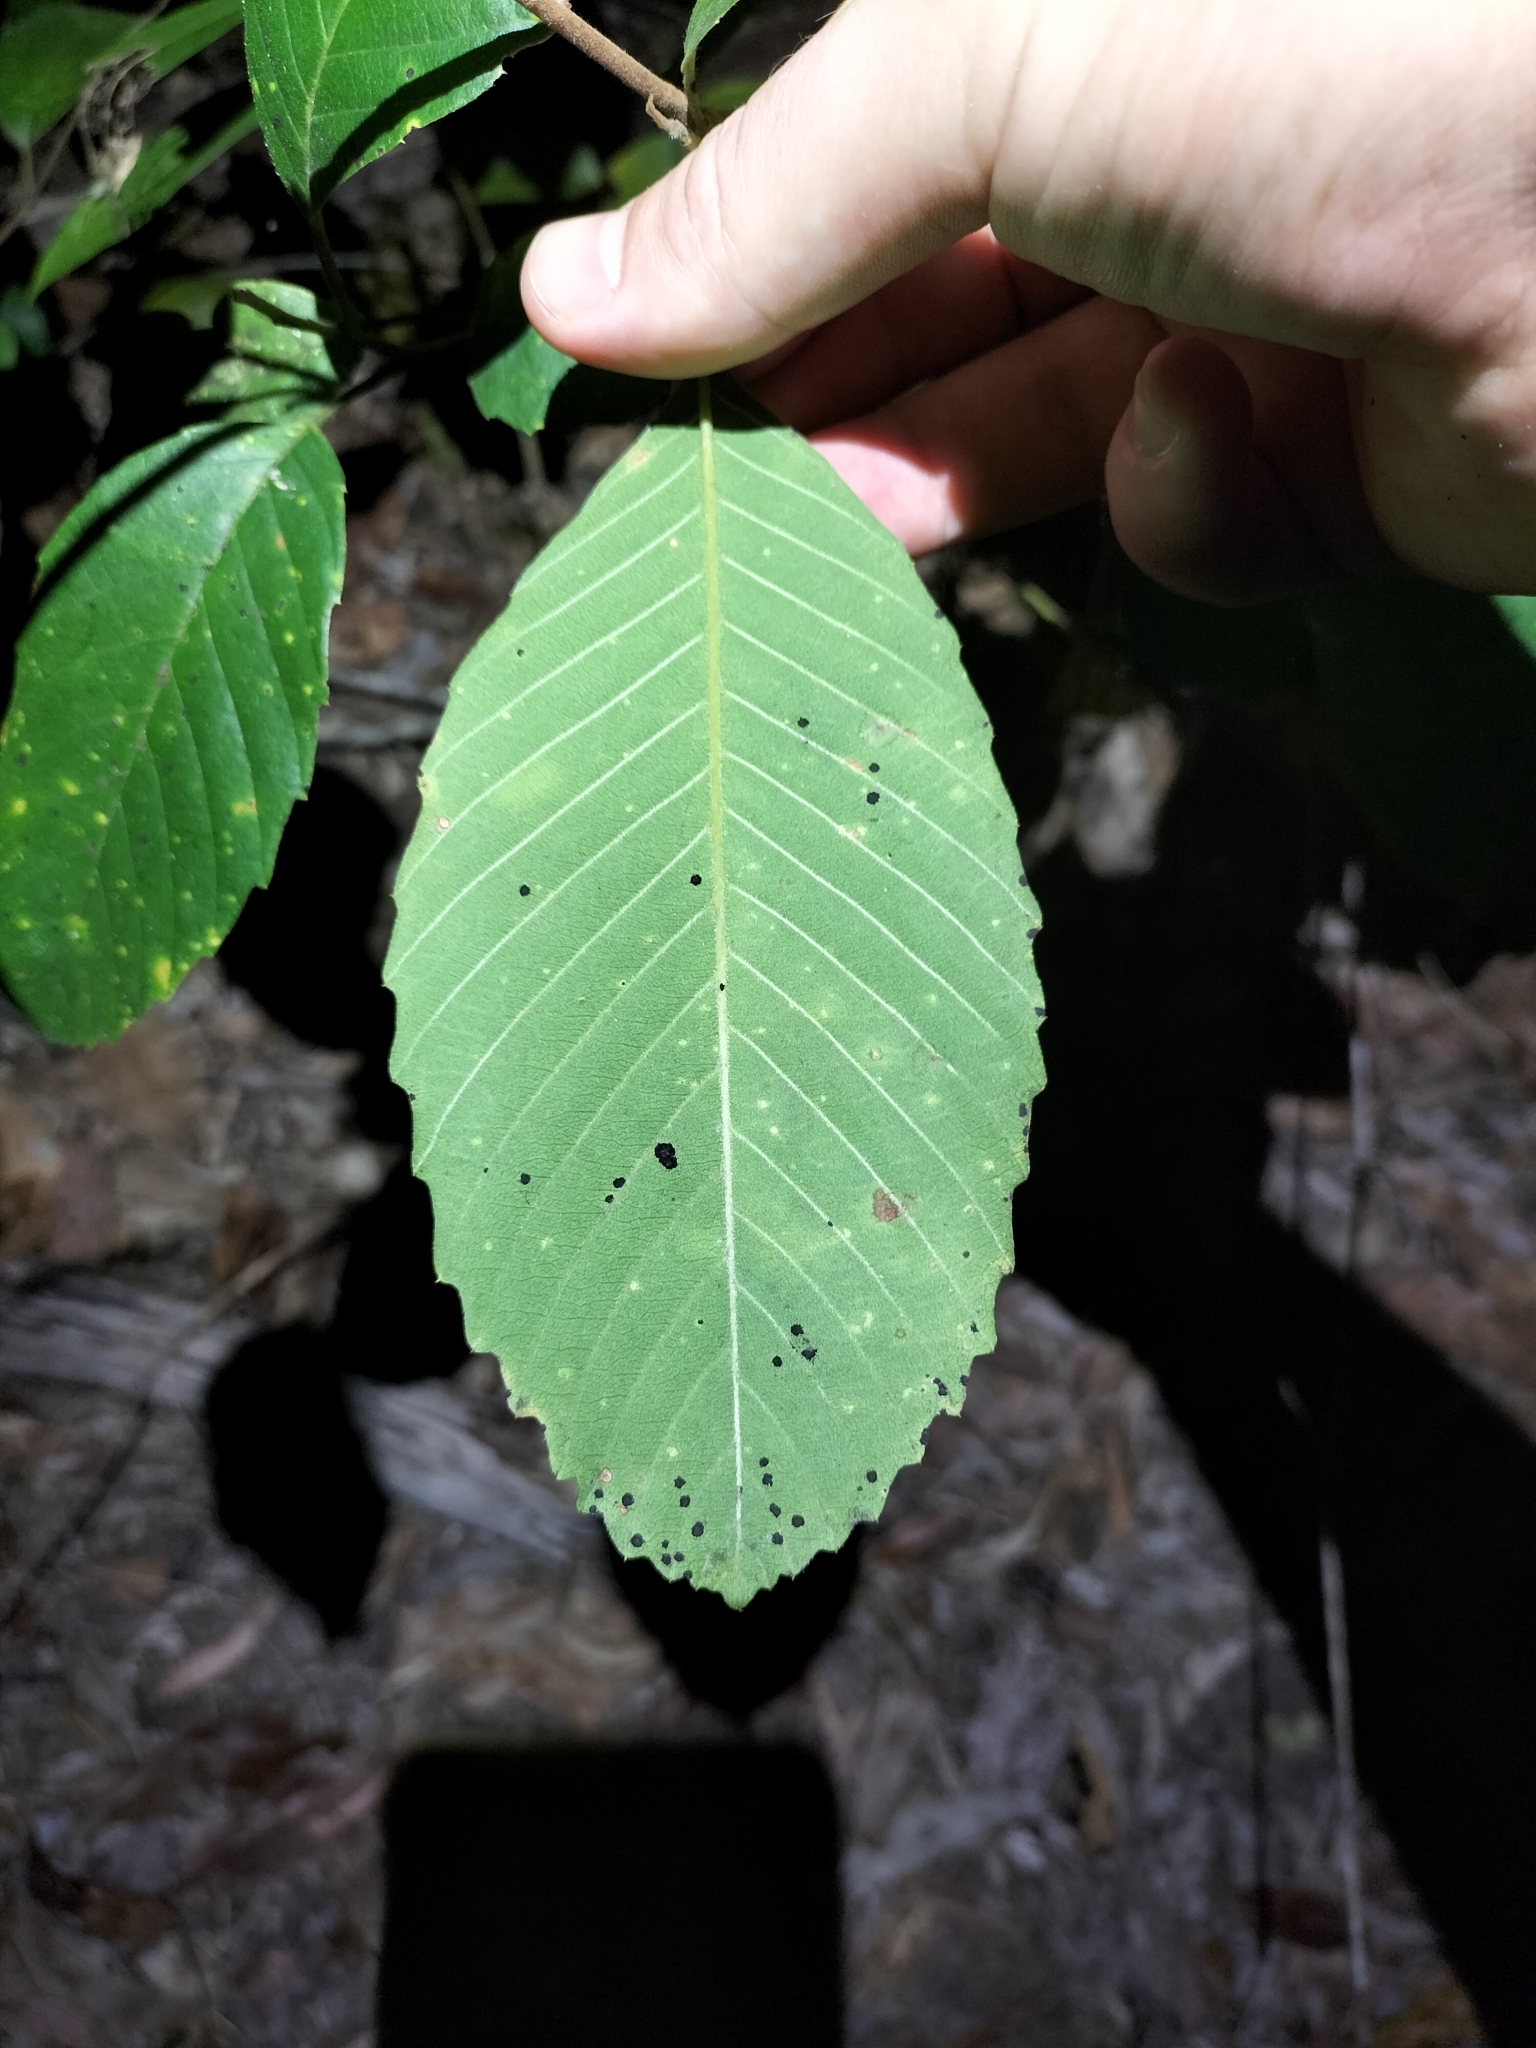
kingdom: Plantae
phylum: Tracheophyta
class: Magnoliopsida
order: Dilleniales
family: Dilleniaceae
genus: Tetracera
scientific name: Tetracera nordtiana
